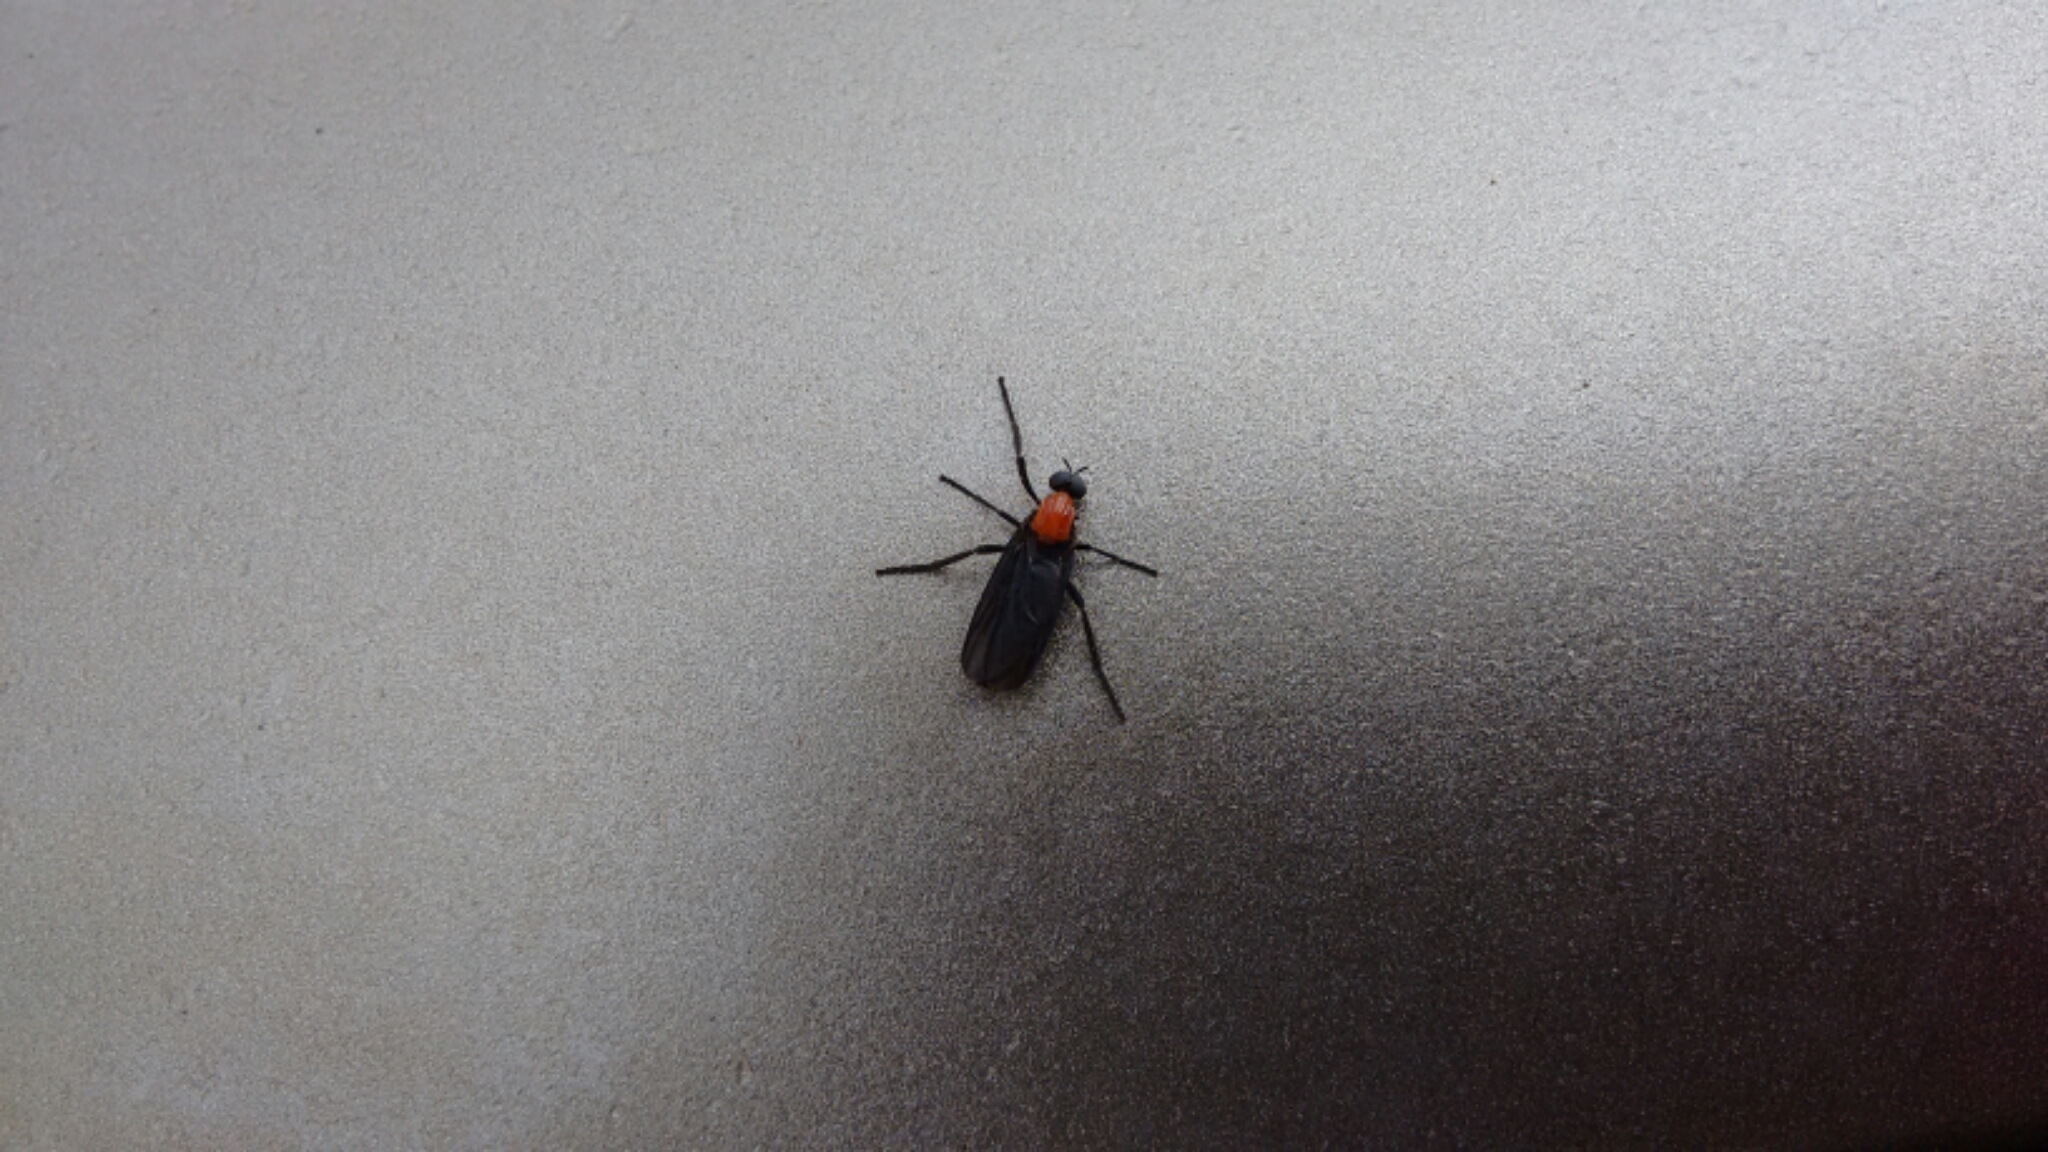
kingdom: Animalia
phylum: Arthropoda
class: Insecta
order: Diptera
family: Bibionidae
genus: Plecia
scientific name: Plecia nearctica
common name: March fly
